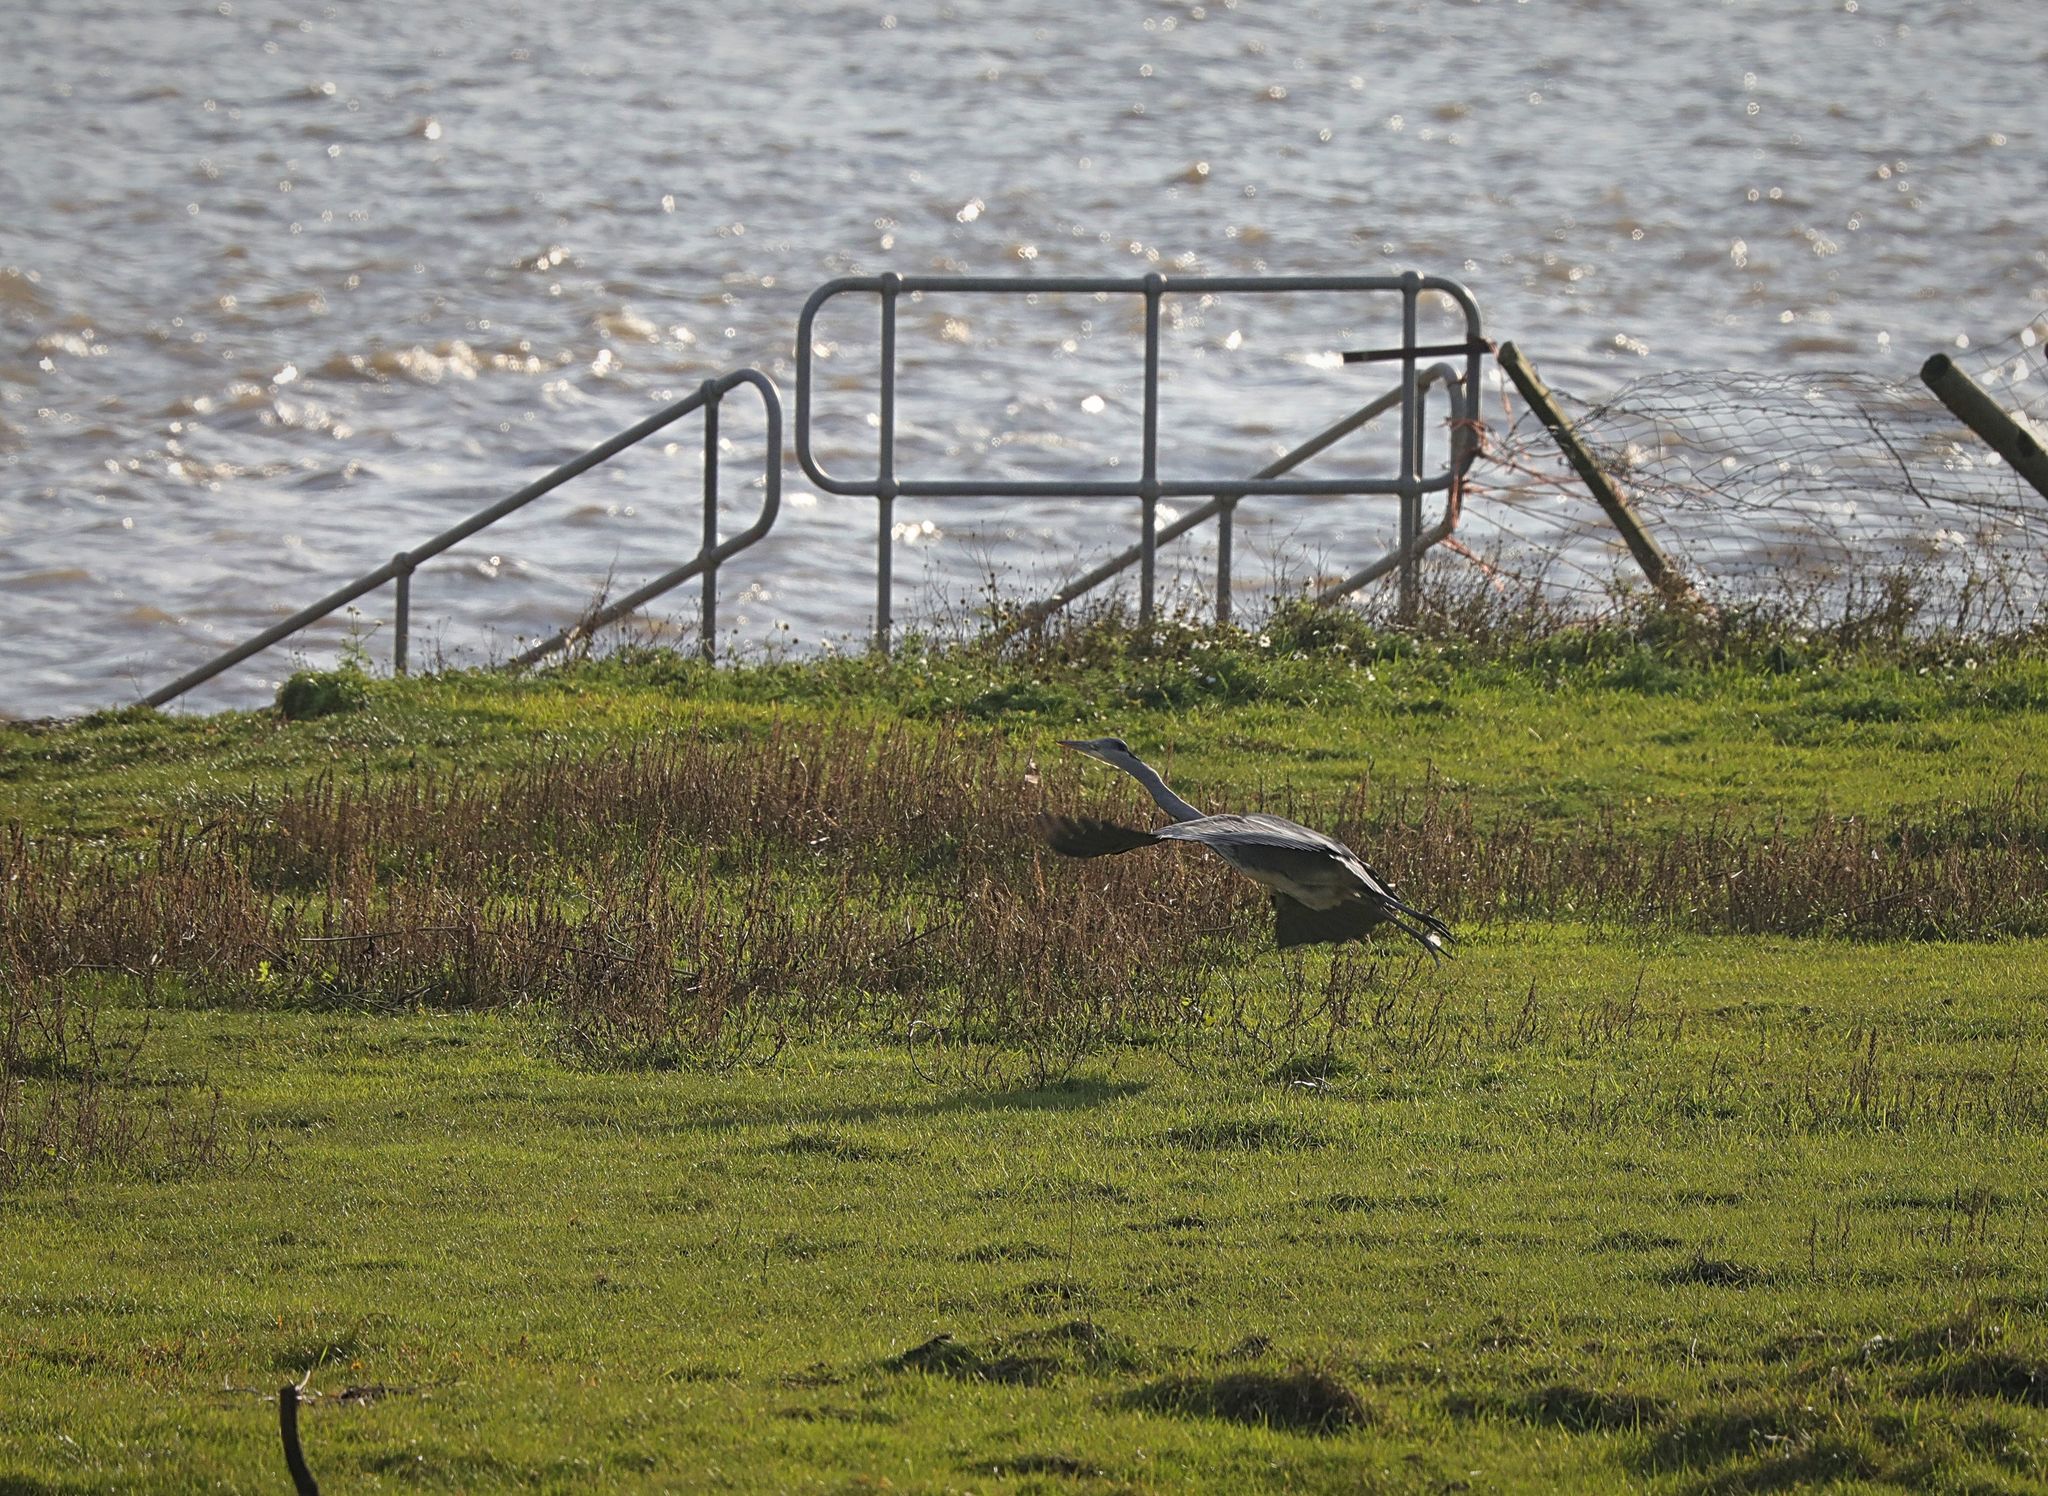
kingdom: Animalia
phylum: Chordata
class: Aves
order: Pelecaniformes
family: Ardeidae
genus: Ardea
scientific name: Ardea cinerea
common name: Grey heron
